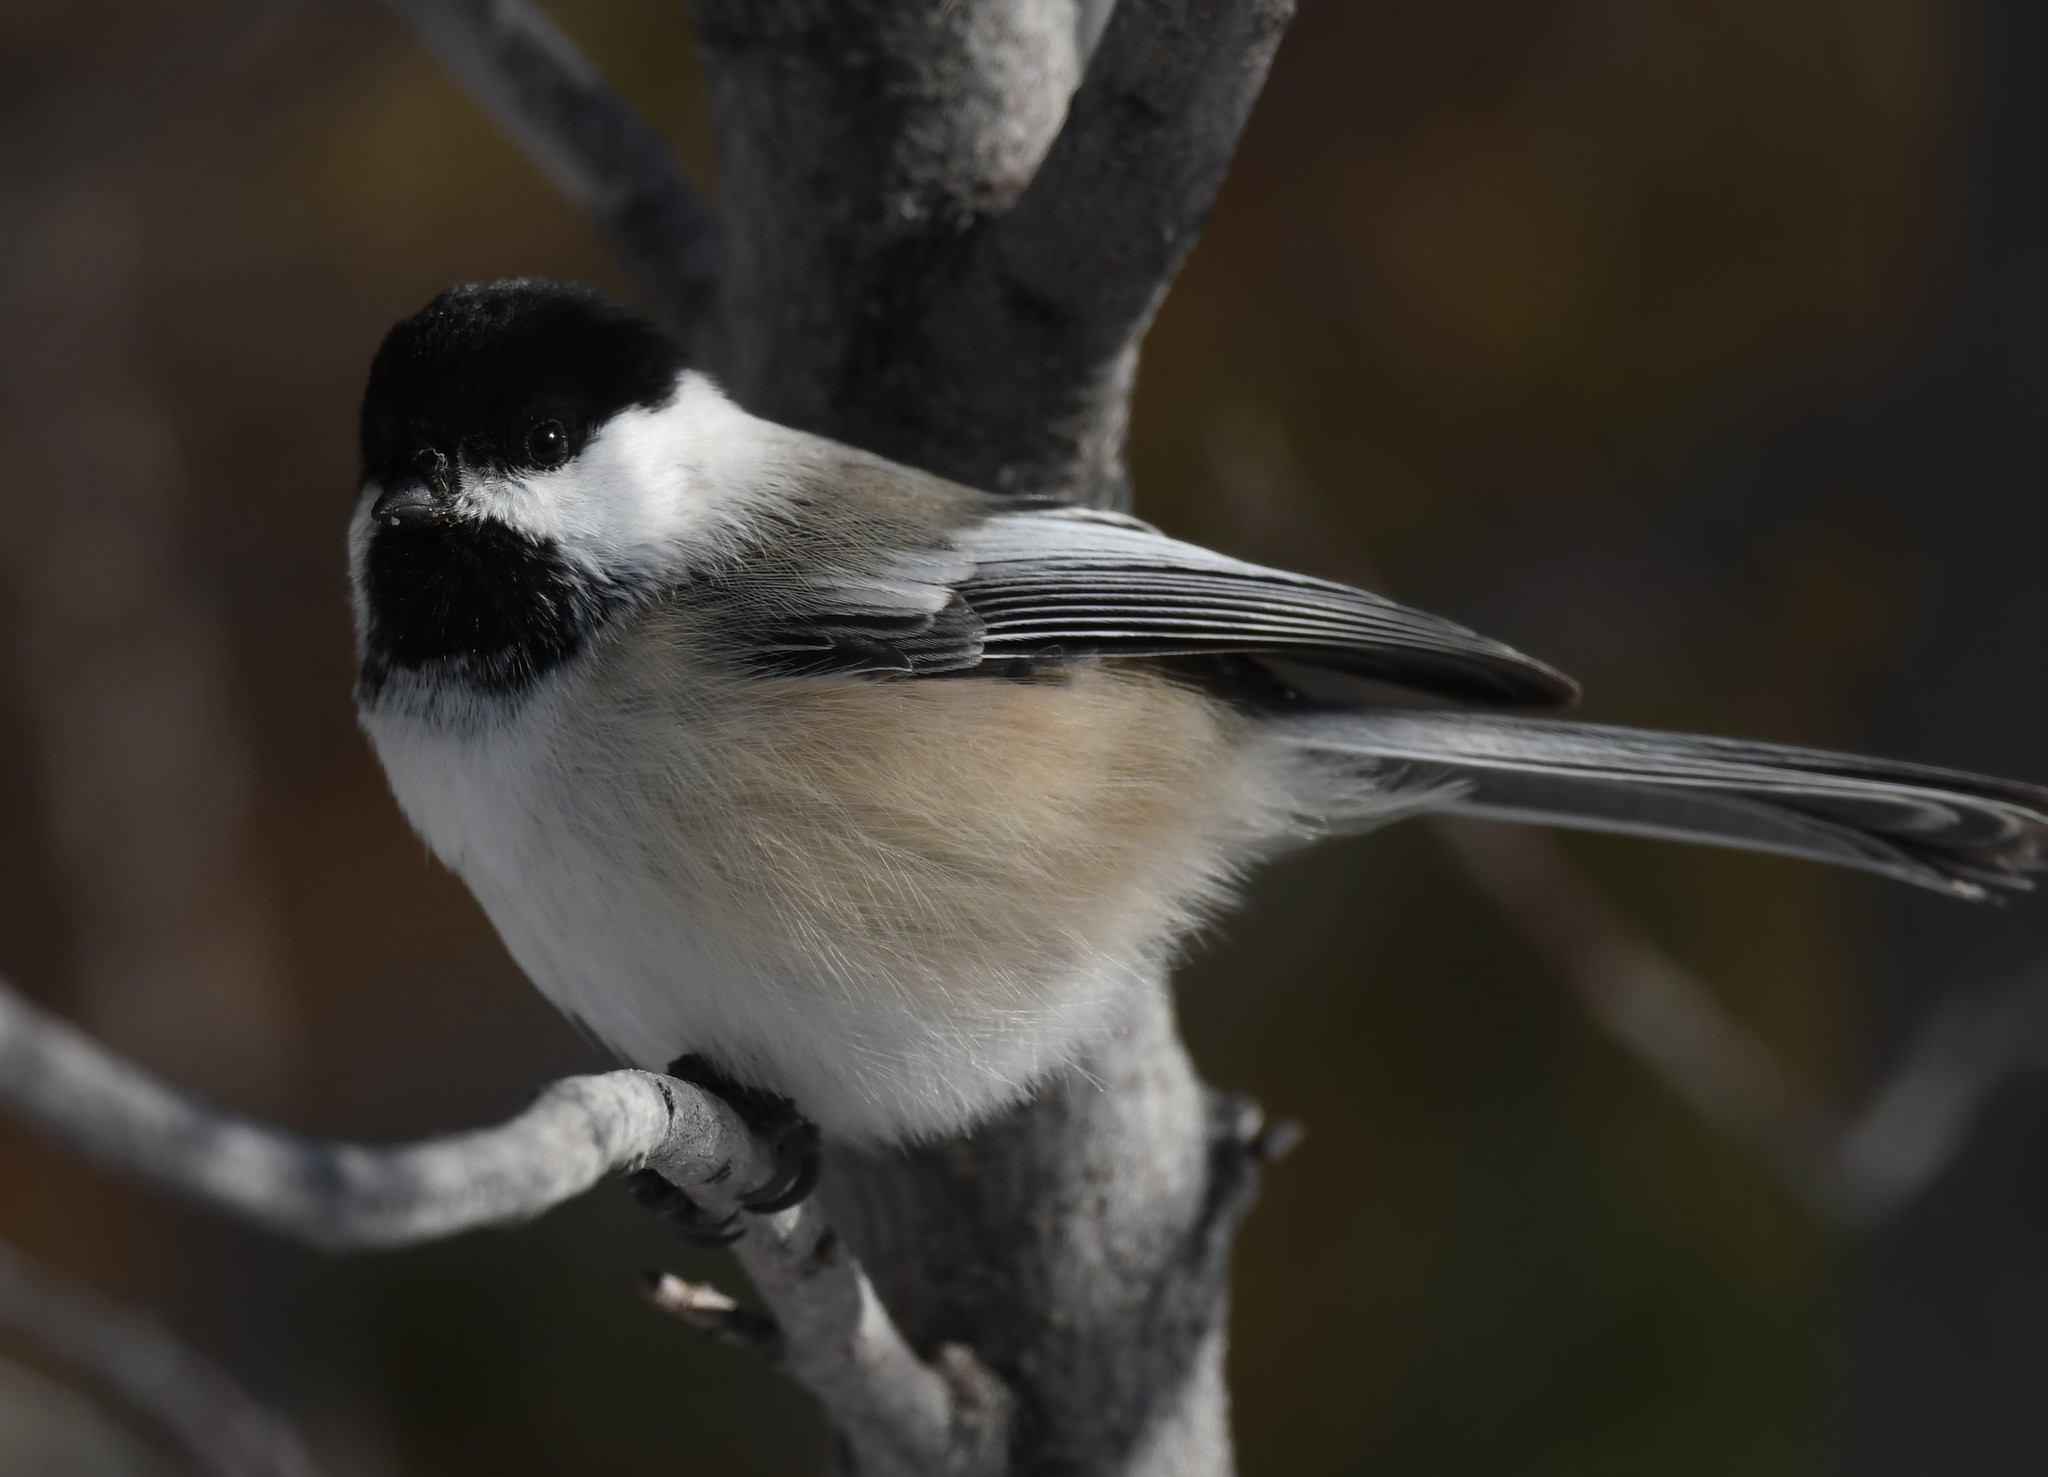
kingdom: Animalia
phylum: Chordata
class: Aves
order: Passeriformes
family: Paridae
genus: Poecile
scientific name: Poecile atricapillus
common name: Black-capped chickadee
